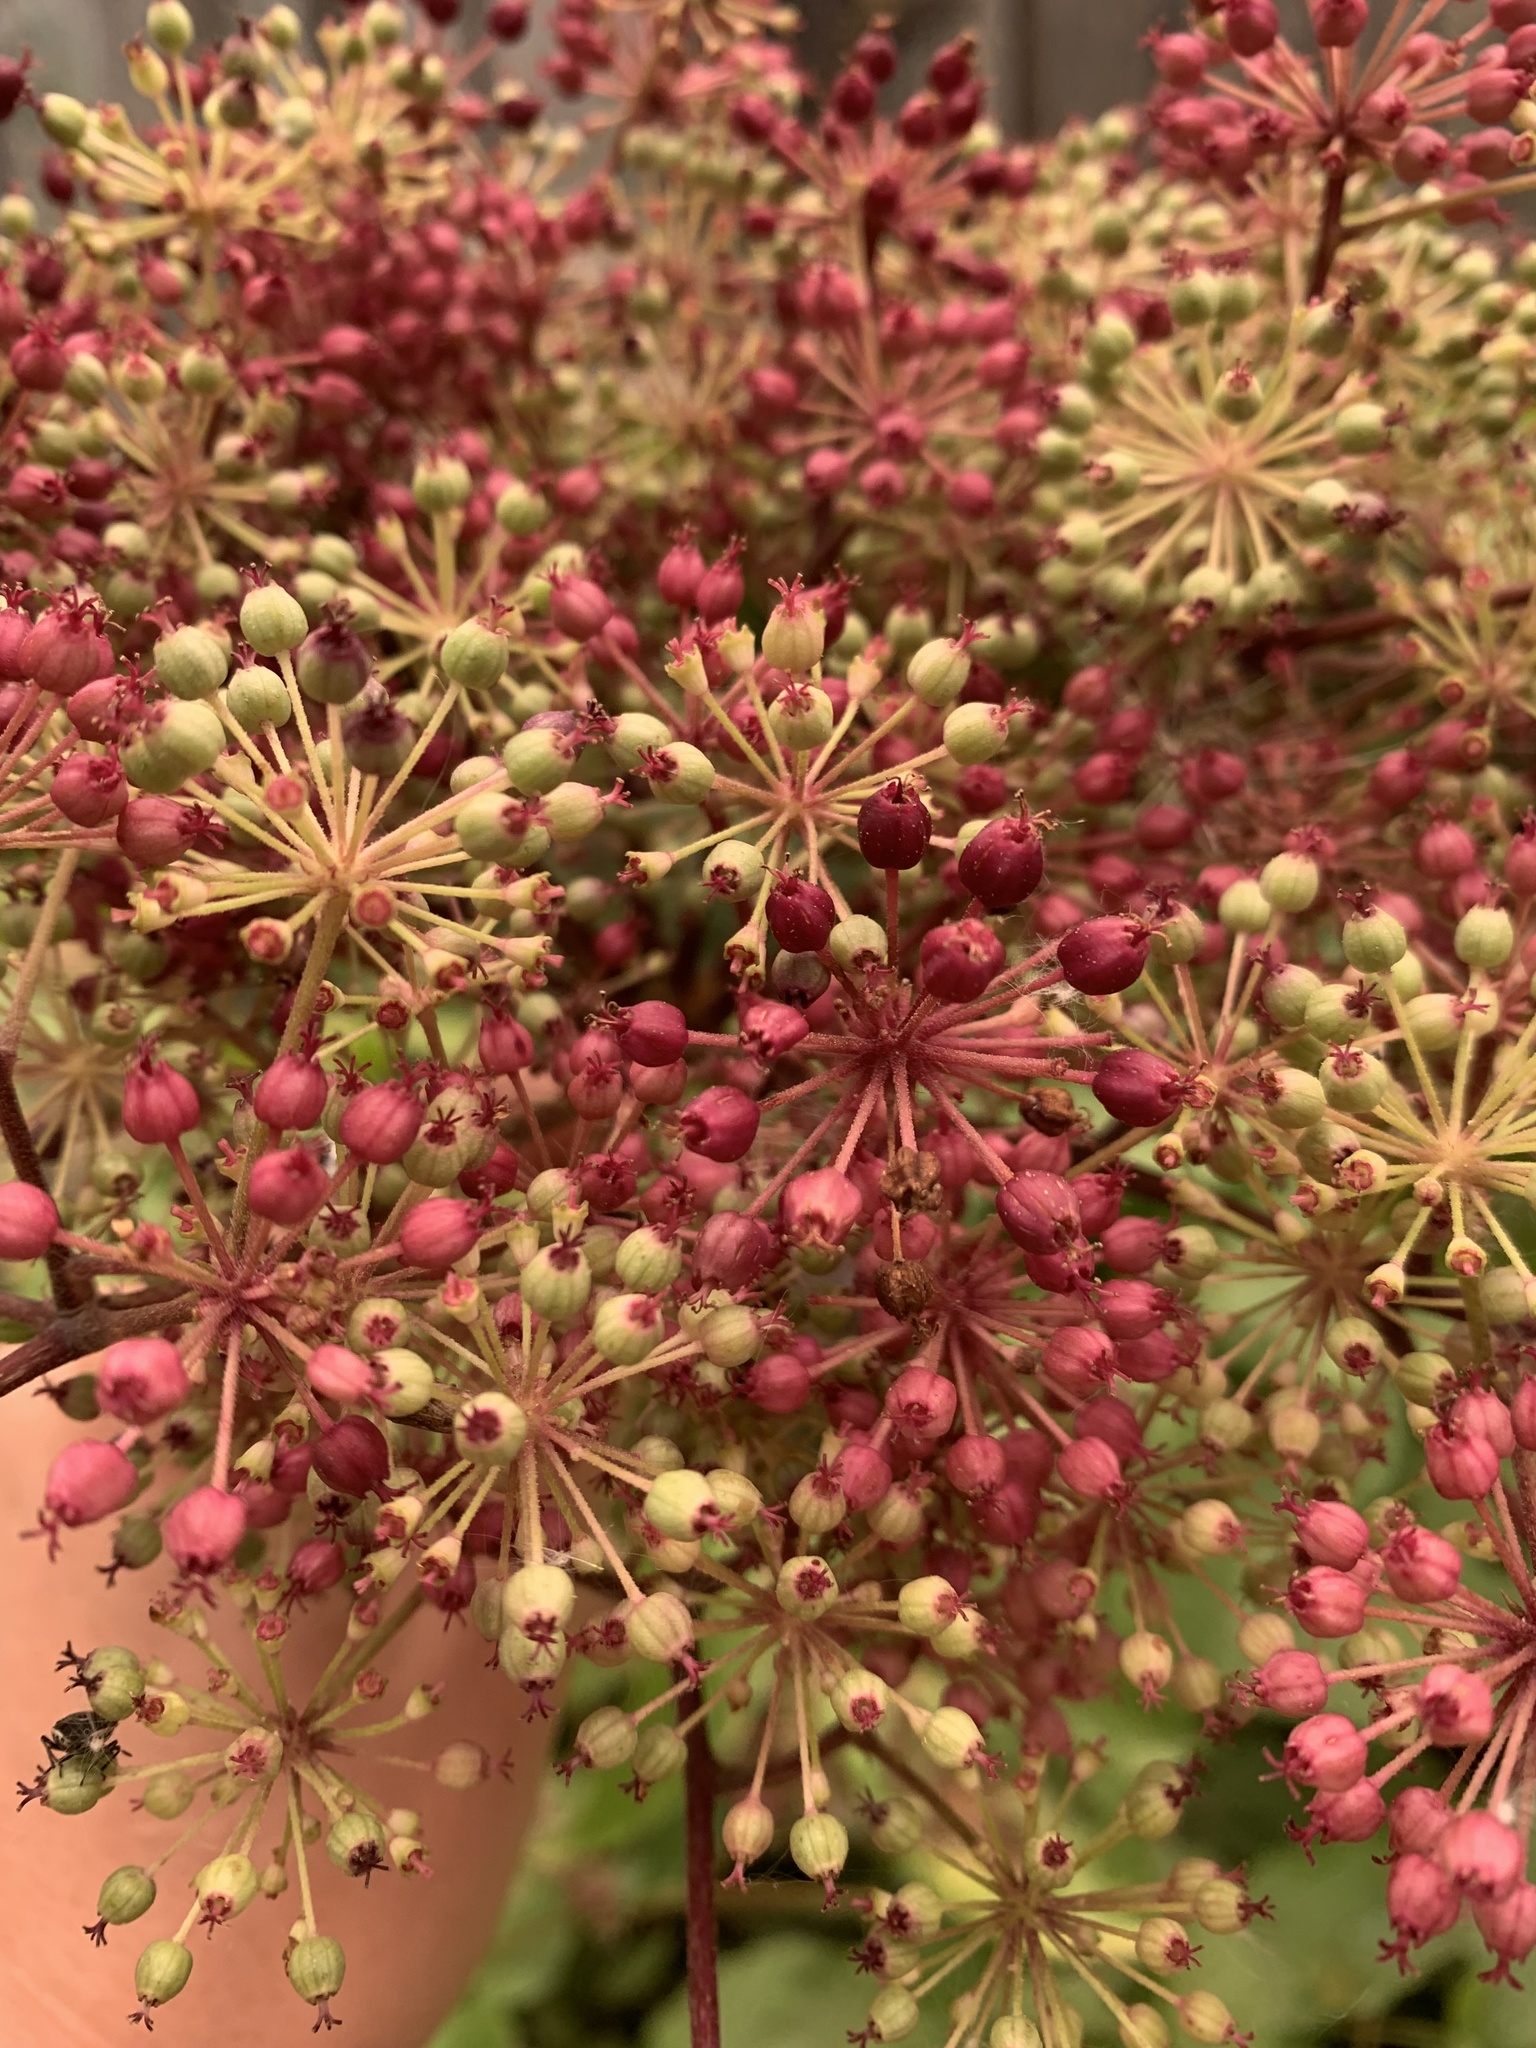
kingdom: Plantae
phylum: Tracheophyta
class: Magnoliopsida
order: Apiales
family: Araliaceae
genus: Aralia
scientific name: Aralia californica
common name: California-ginseng
